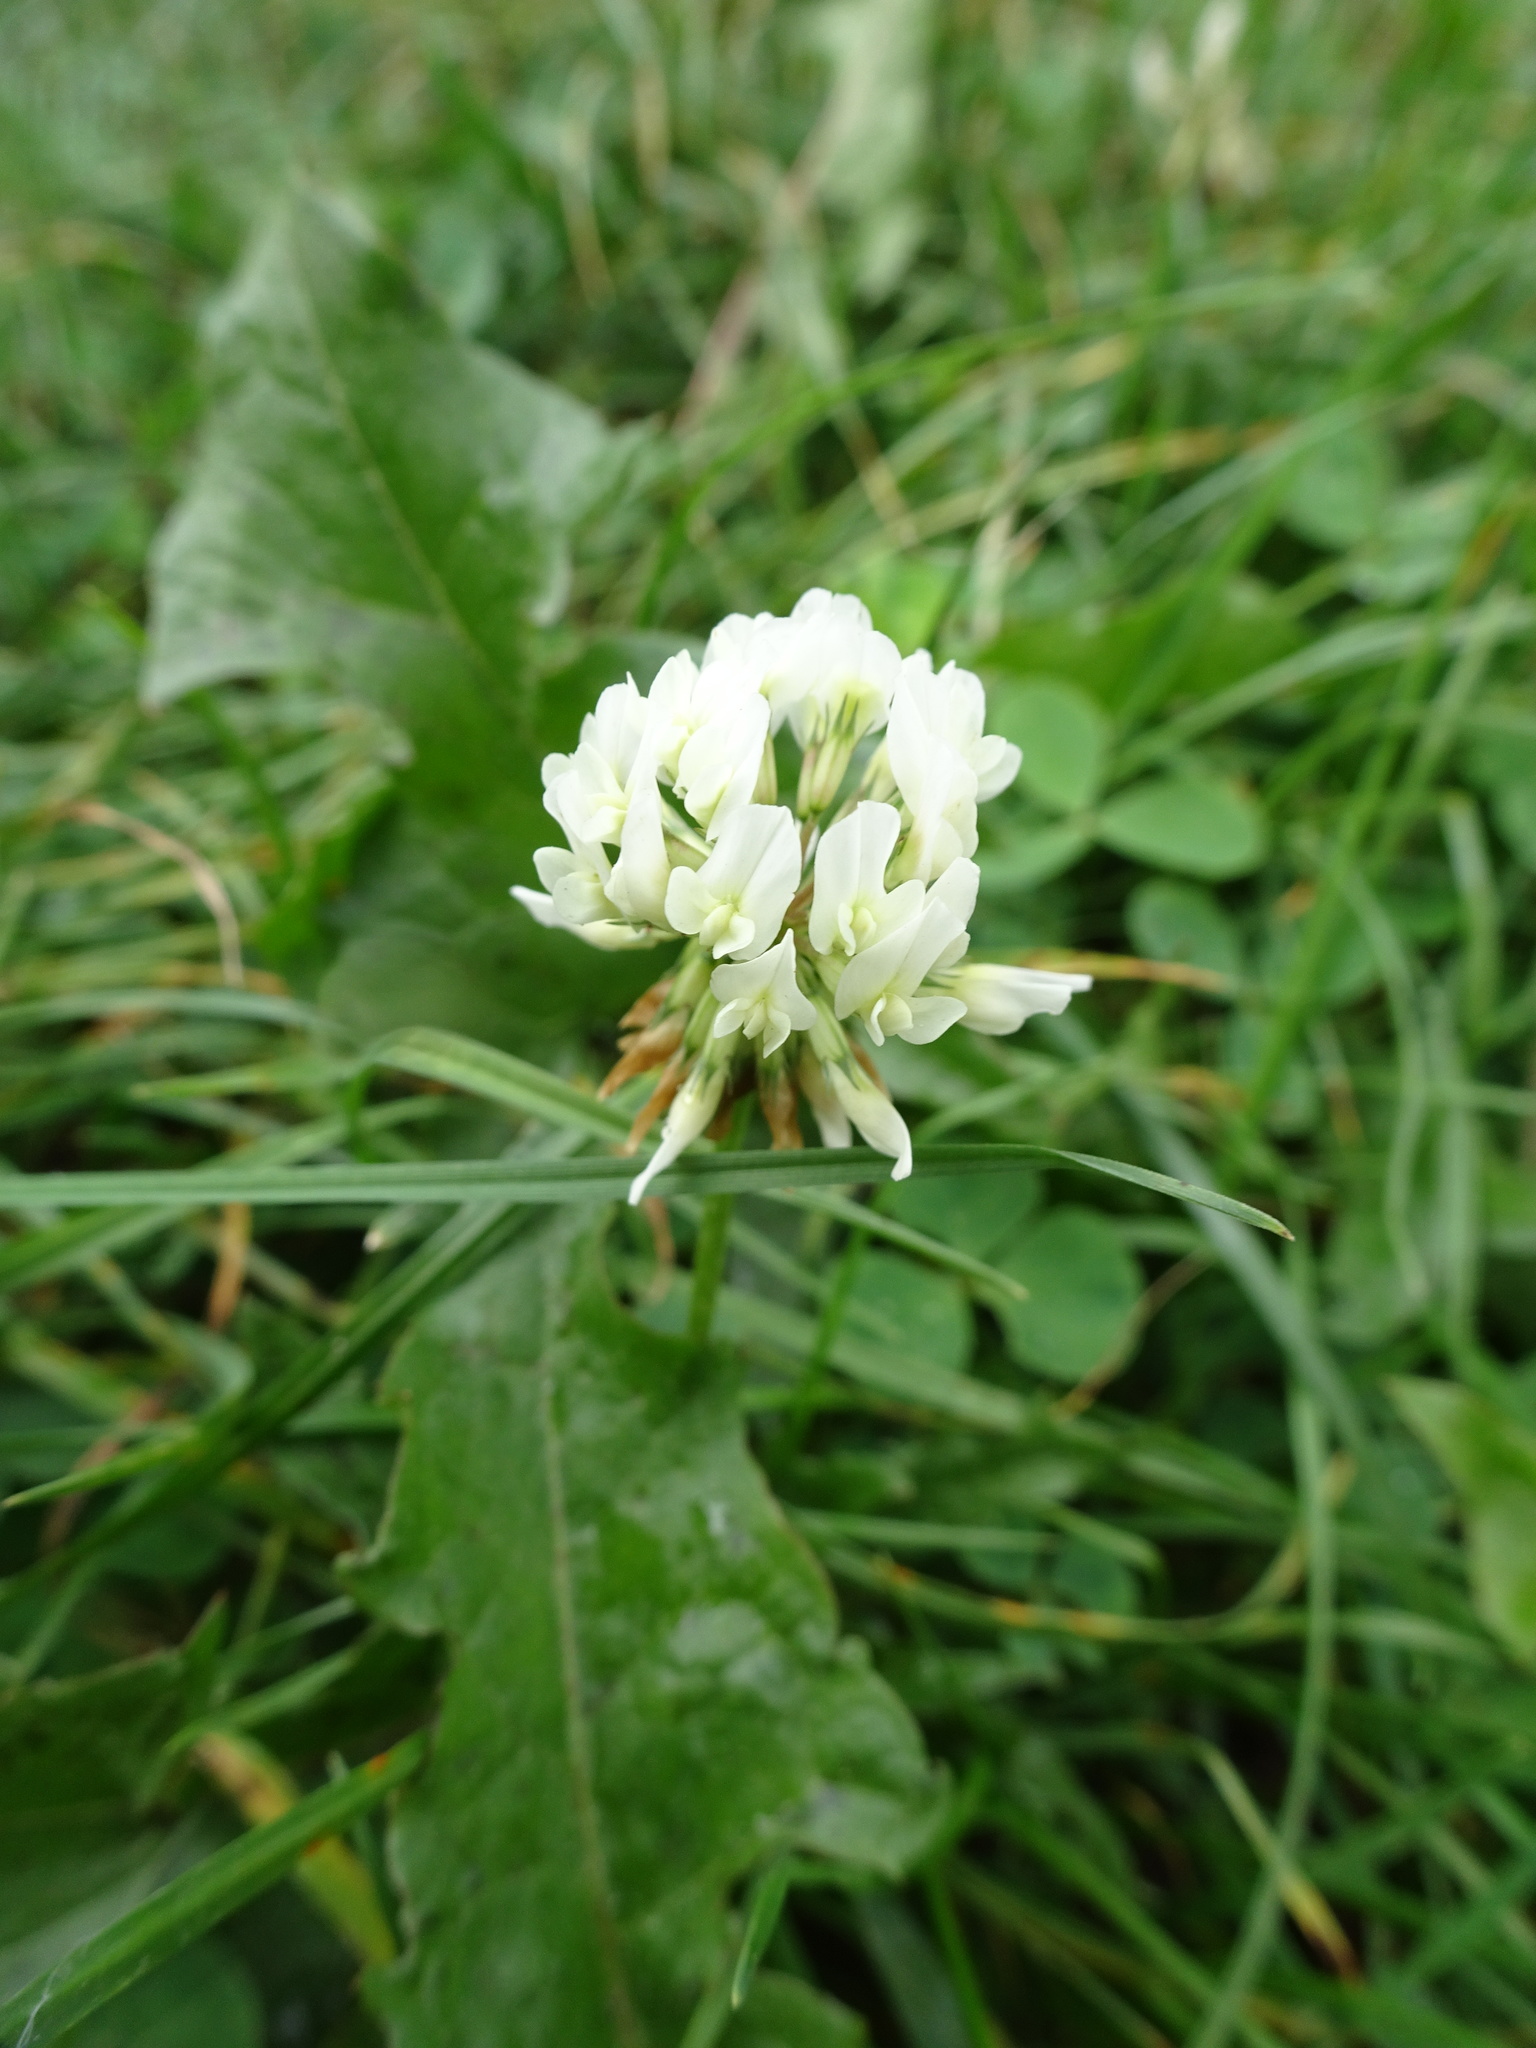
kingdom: Plantae
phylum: Tracheophyta
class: Magnoliopsida
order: Fabales
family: Fabaceae
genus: Trifolium
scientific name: Trifolium repens
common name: White clover
